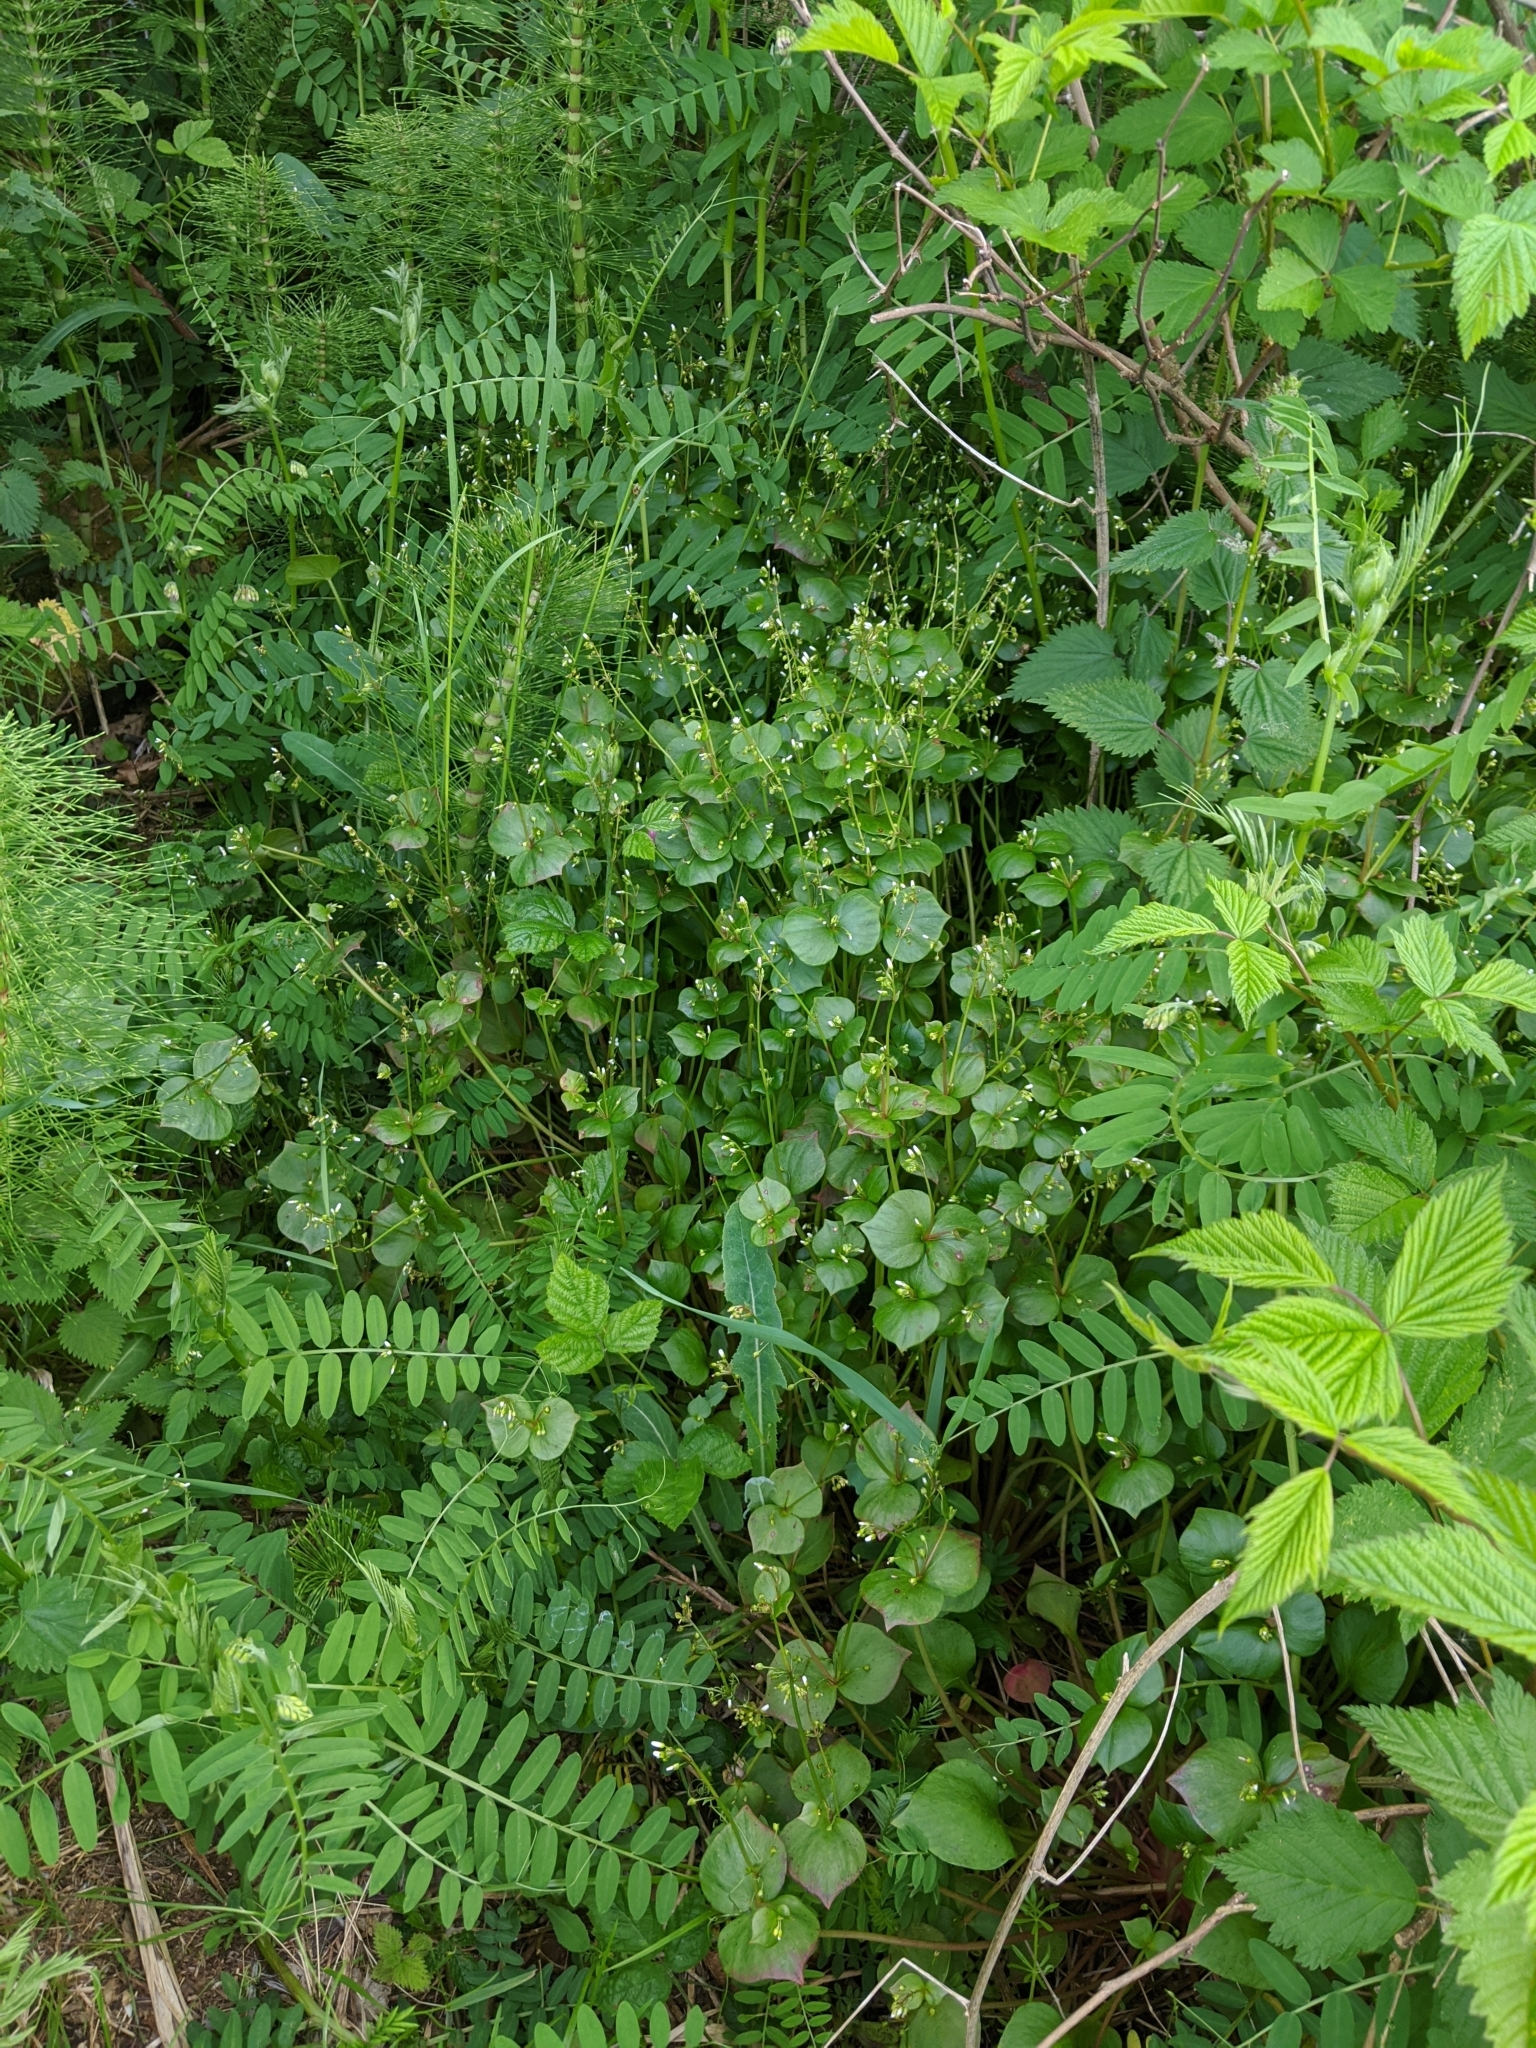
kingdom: Plantae
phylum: Tracheophyta
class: Magnoliopsida
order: Caryophyllales
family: Montiaceae
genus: Claytonia
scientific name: Claytonia washingtoniana
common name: Lake washington claytonia
